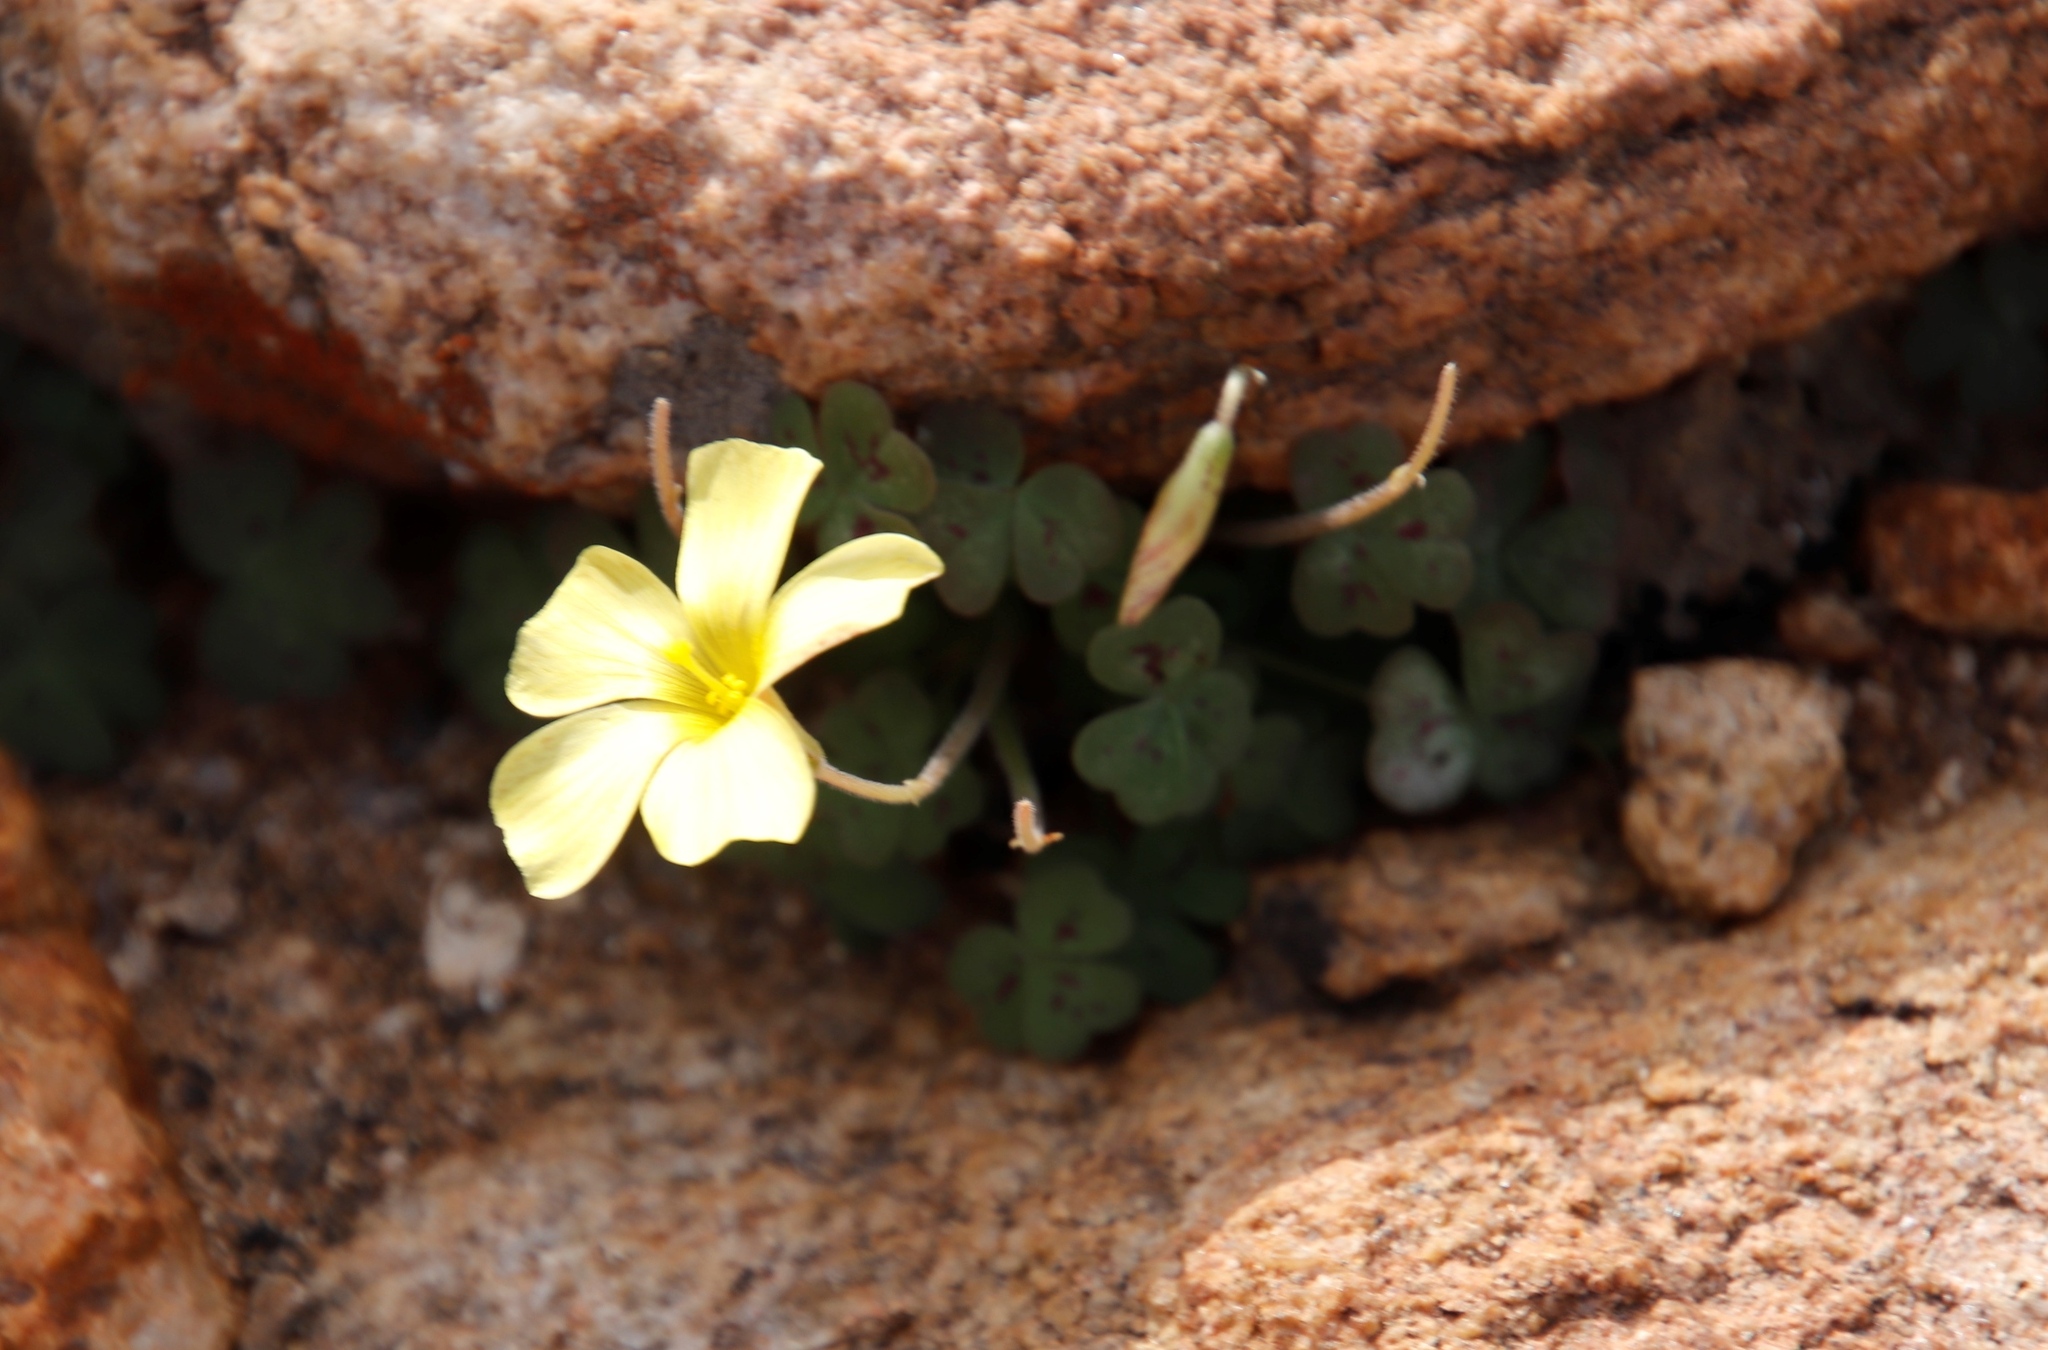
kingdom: Plantae
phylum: Tracheophyta
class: Magnoliopsida
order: Oxalidales
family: Oxalidaceae
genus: Oxalis
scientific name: Oxalis obtusa
